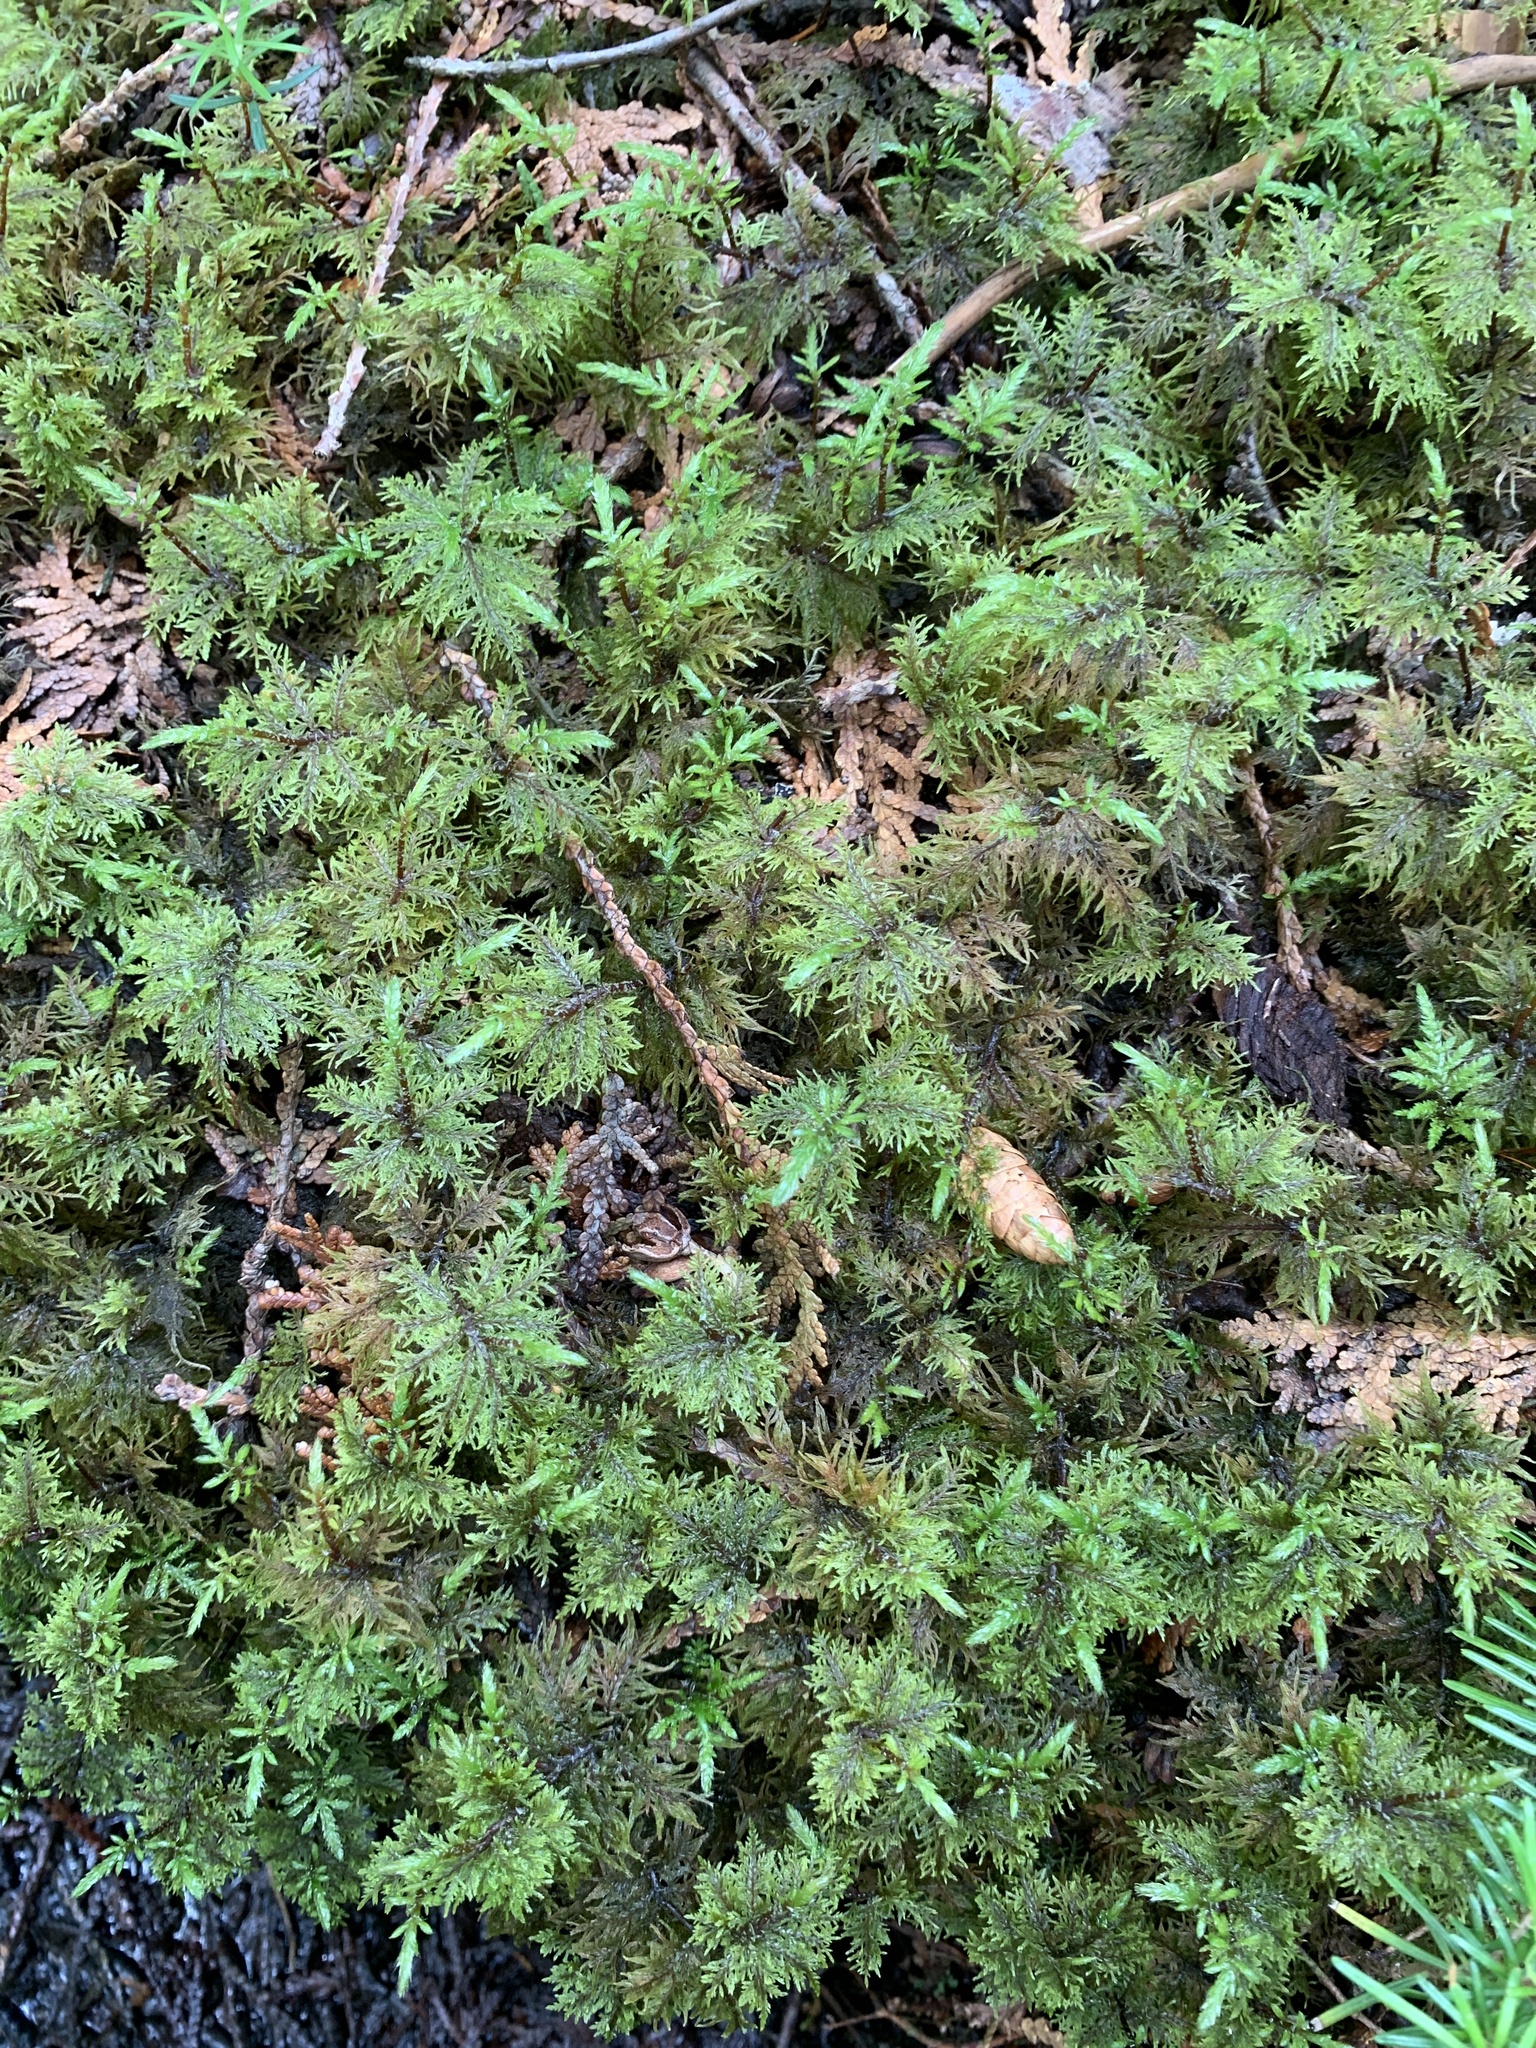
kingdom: Plantae
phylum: Bryophyta
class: Bryopsida
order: Hypnales
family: Hylocomiaceae
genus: Hylocomium
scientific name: Hylocomium splendens
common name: Stairstep moss
